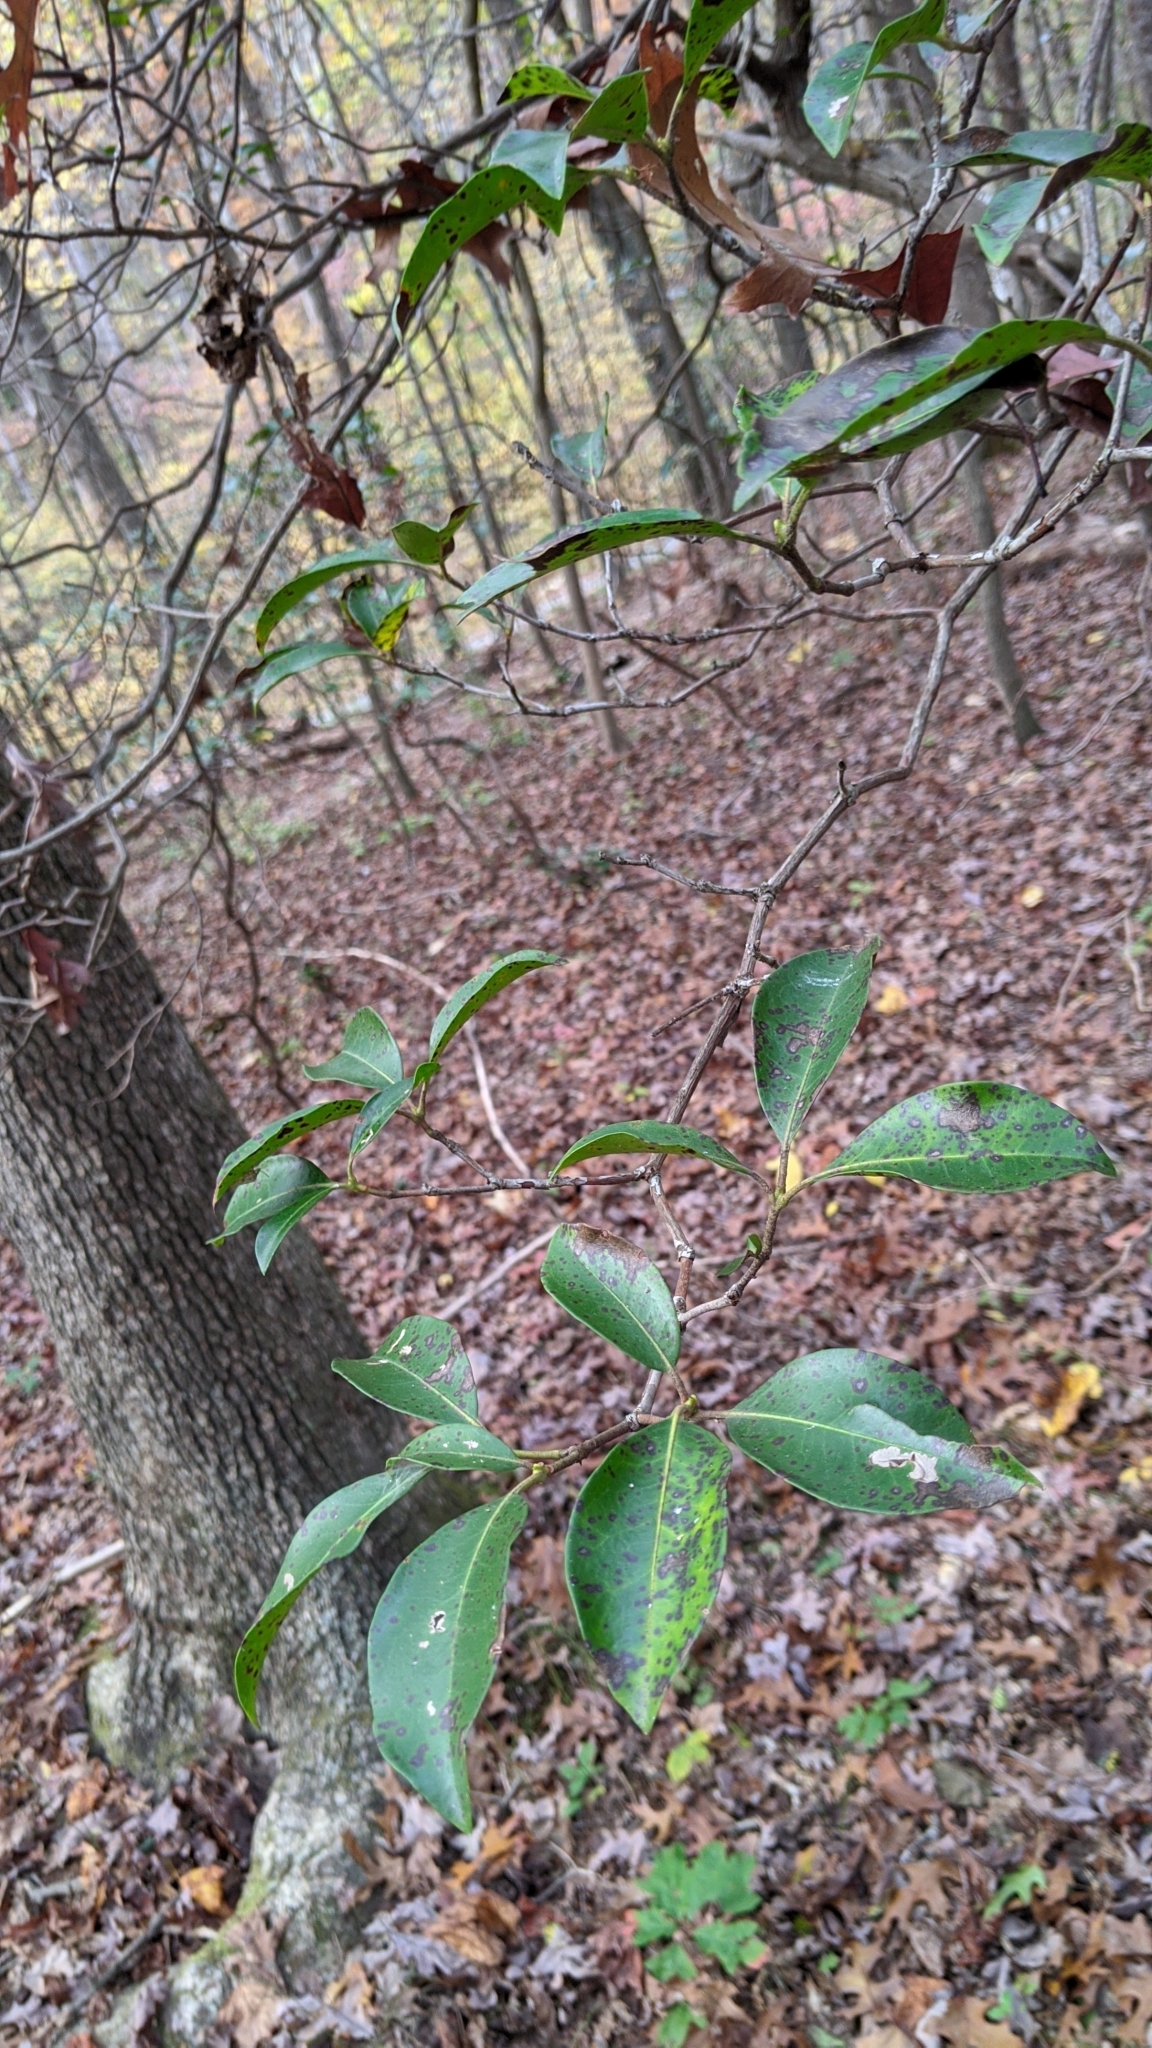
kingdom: Plantae
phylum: Tracheophyta
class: Magnoliopsida
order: Ericales
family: Ericaceae
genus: Kalmia
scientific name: Kalmia latifolia
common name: Mountain-laurel
